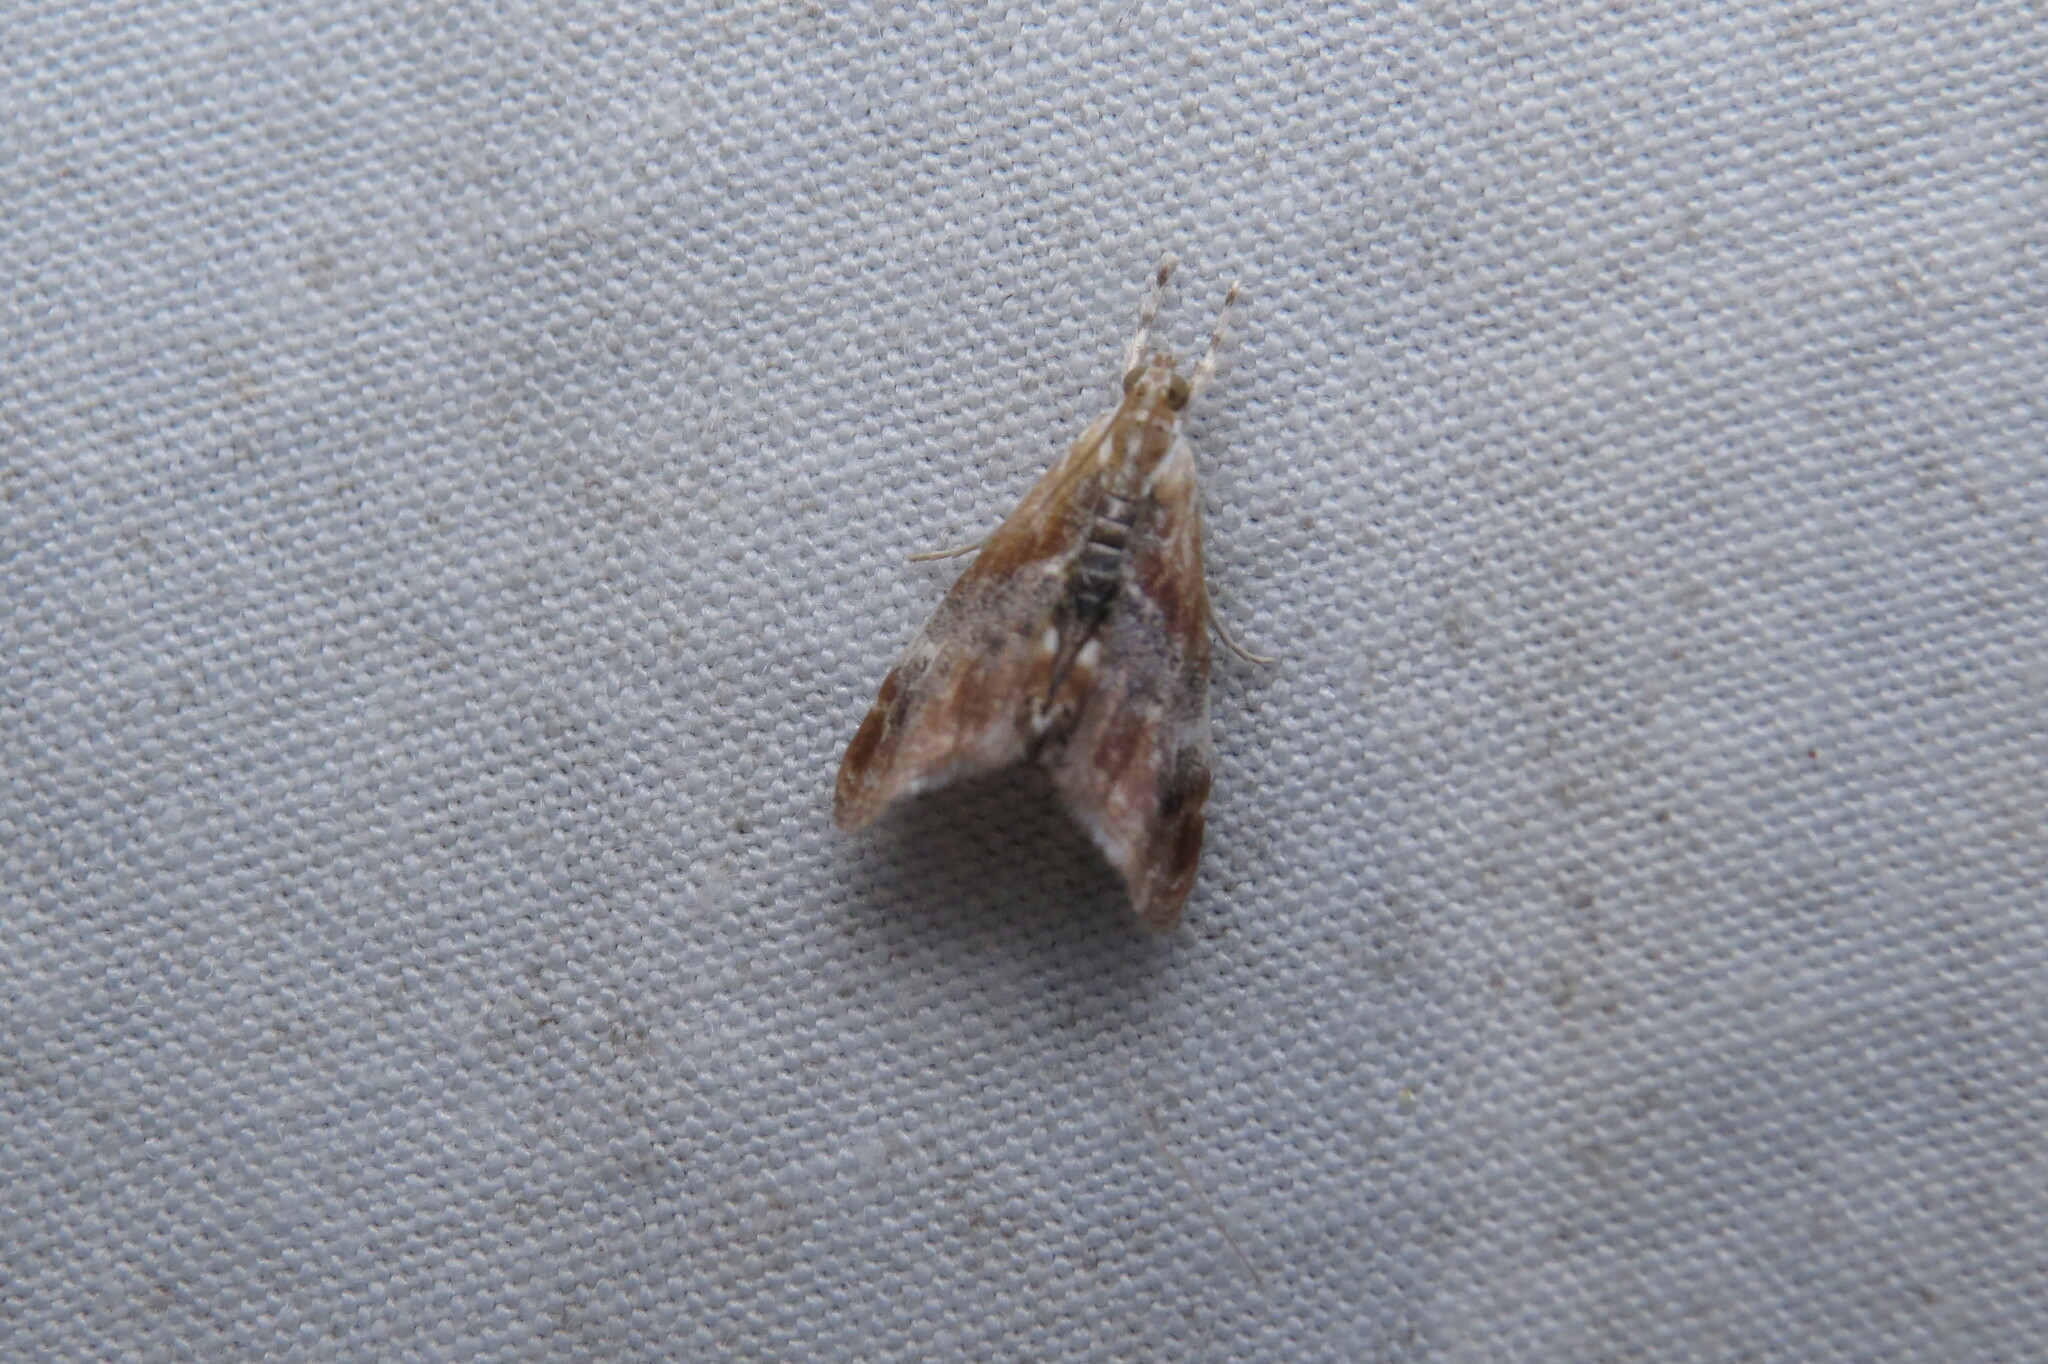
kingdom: Animalia
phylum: Arthropoda
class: Insecta
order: Lepidoptera
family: Crambidae
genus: Dicymolomia
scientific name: Dicymolomia julianalis
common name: Julia's dicymolomia moth
